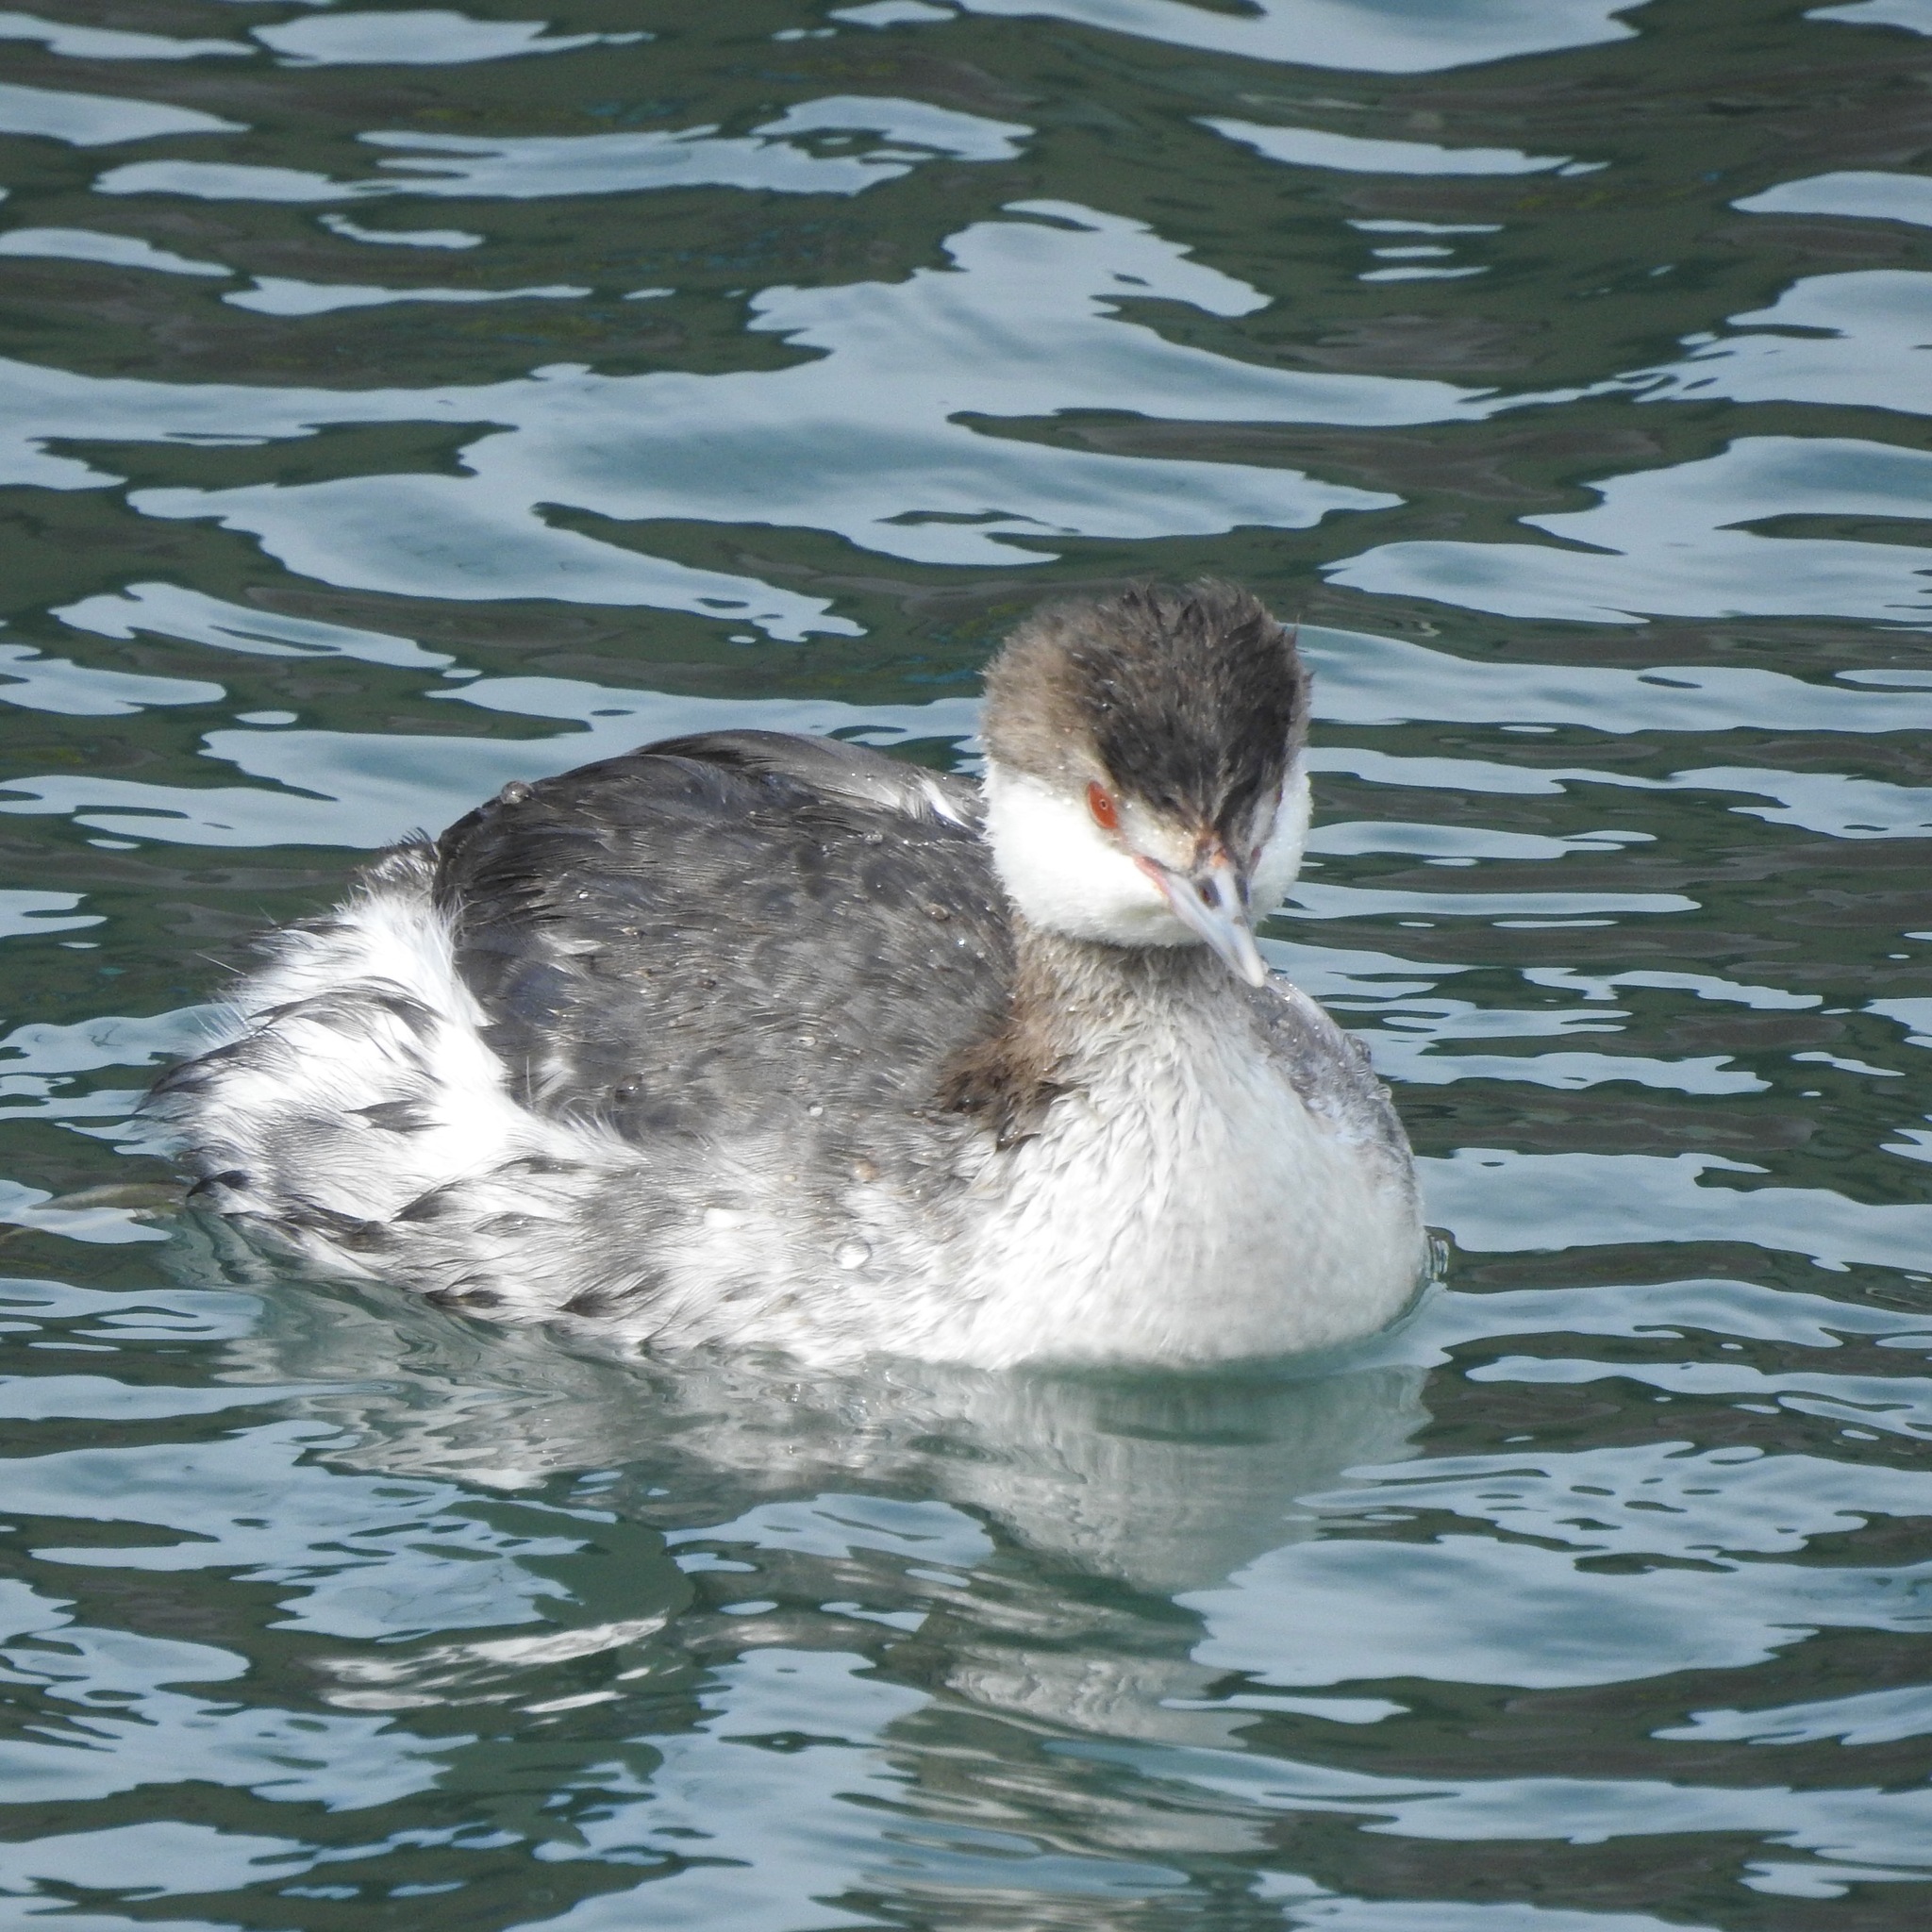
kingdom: Animalia
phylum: Chordata
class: Aves
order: Podicipediformes
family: Podicipedidae
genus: Podiceps
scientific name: Podiceps auritus
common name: Horned grebe
